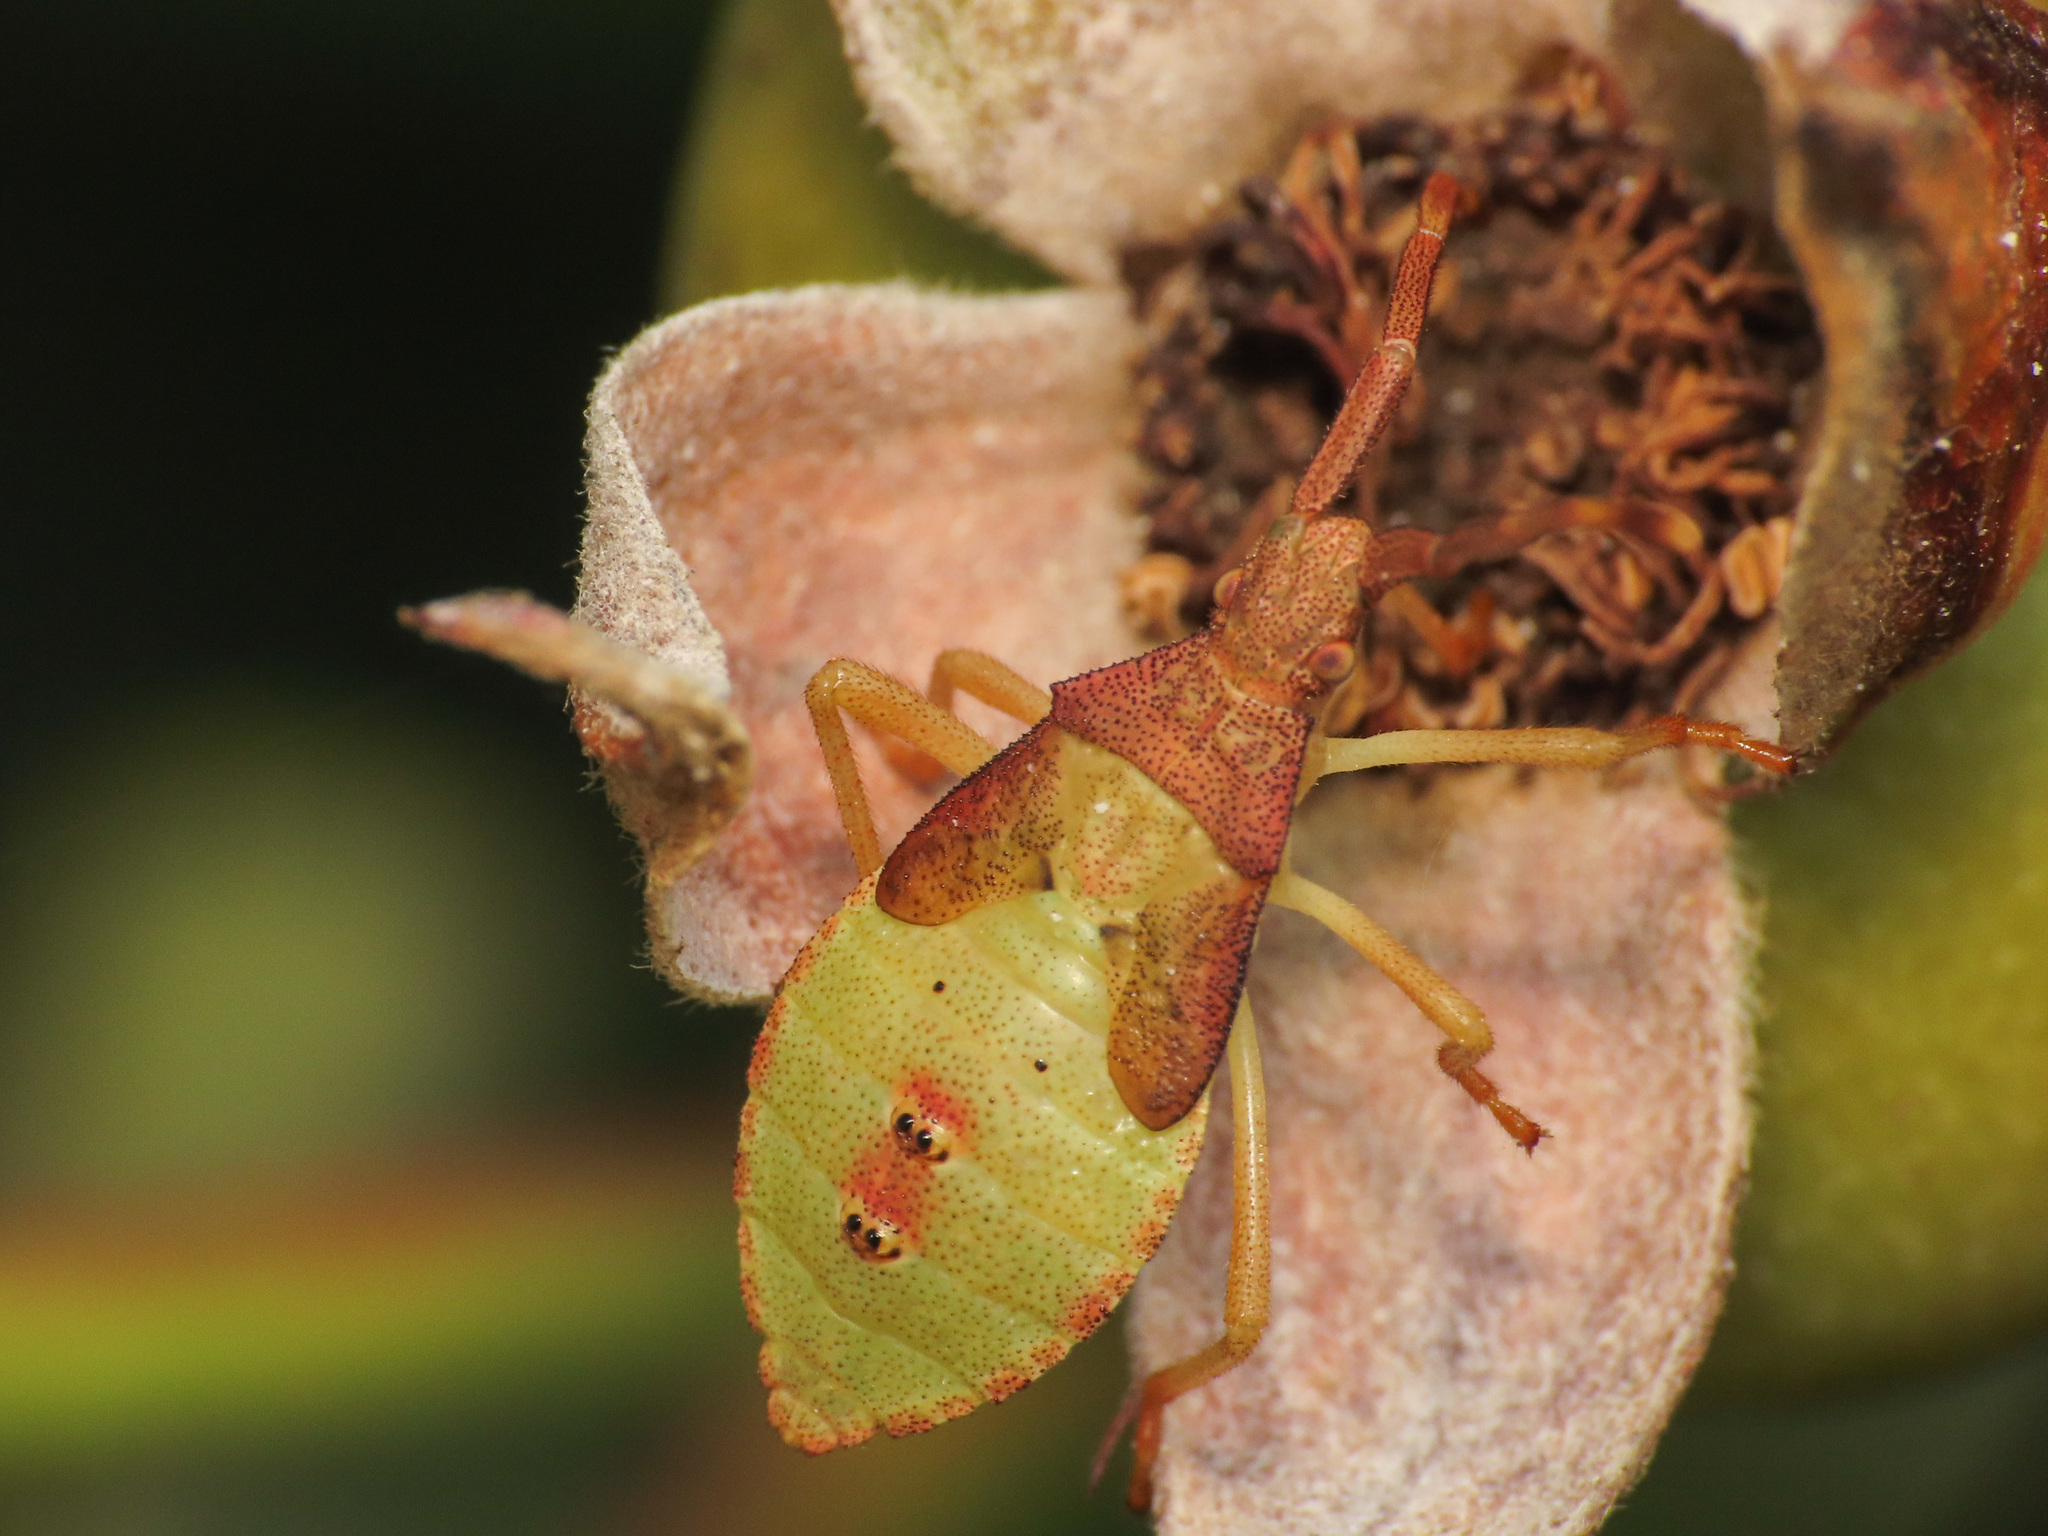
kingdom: Animalia
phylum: Arthropoda
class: Insecta
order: Hemiptera
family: Coreidae
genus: Gonocerus
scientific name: Gonocerus acuteangulatus
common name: Box bug
